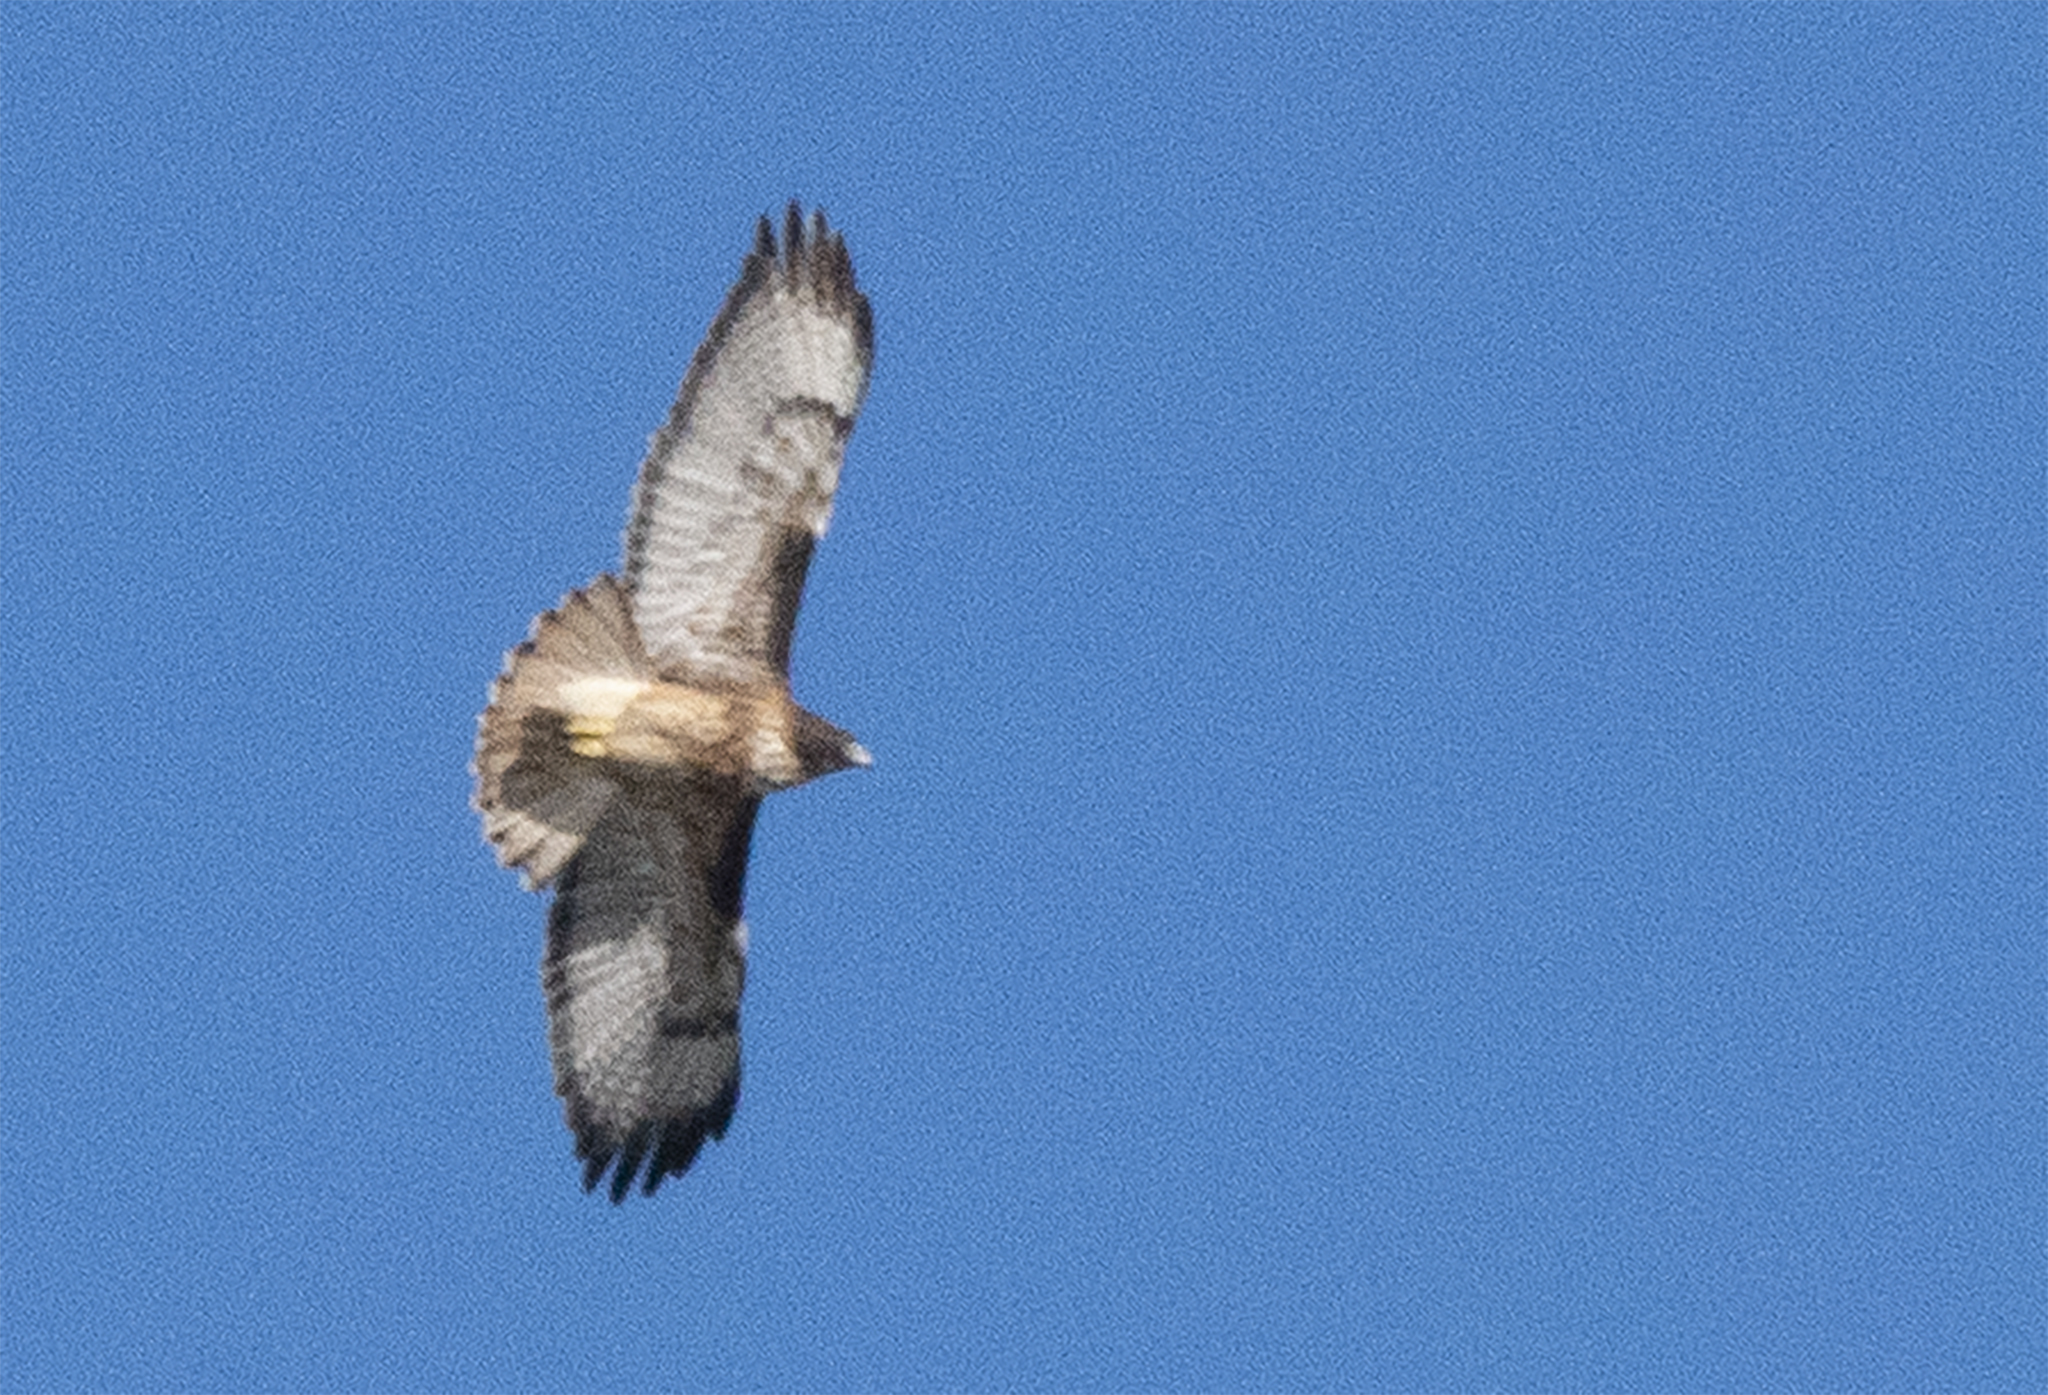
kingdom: Animalia
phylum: Chordata
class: Aves
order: Accipitriformes
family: Accipitridae
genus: Buteo
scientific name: Buteo jamaicensis
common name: Red-tailed hawk
